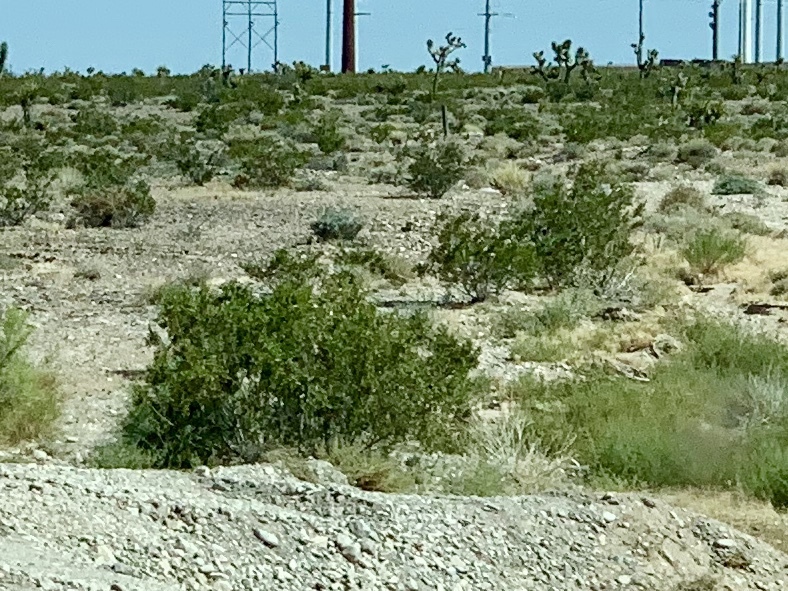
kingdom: Plantae
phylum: Tracheophyta
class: Magnoliopsida
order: Zygophyllales
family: Zygophyllaceae
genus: Larrea
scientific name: Larrea tridentata
